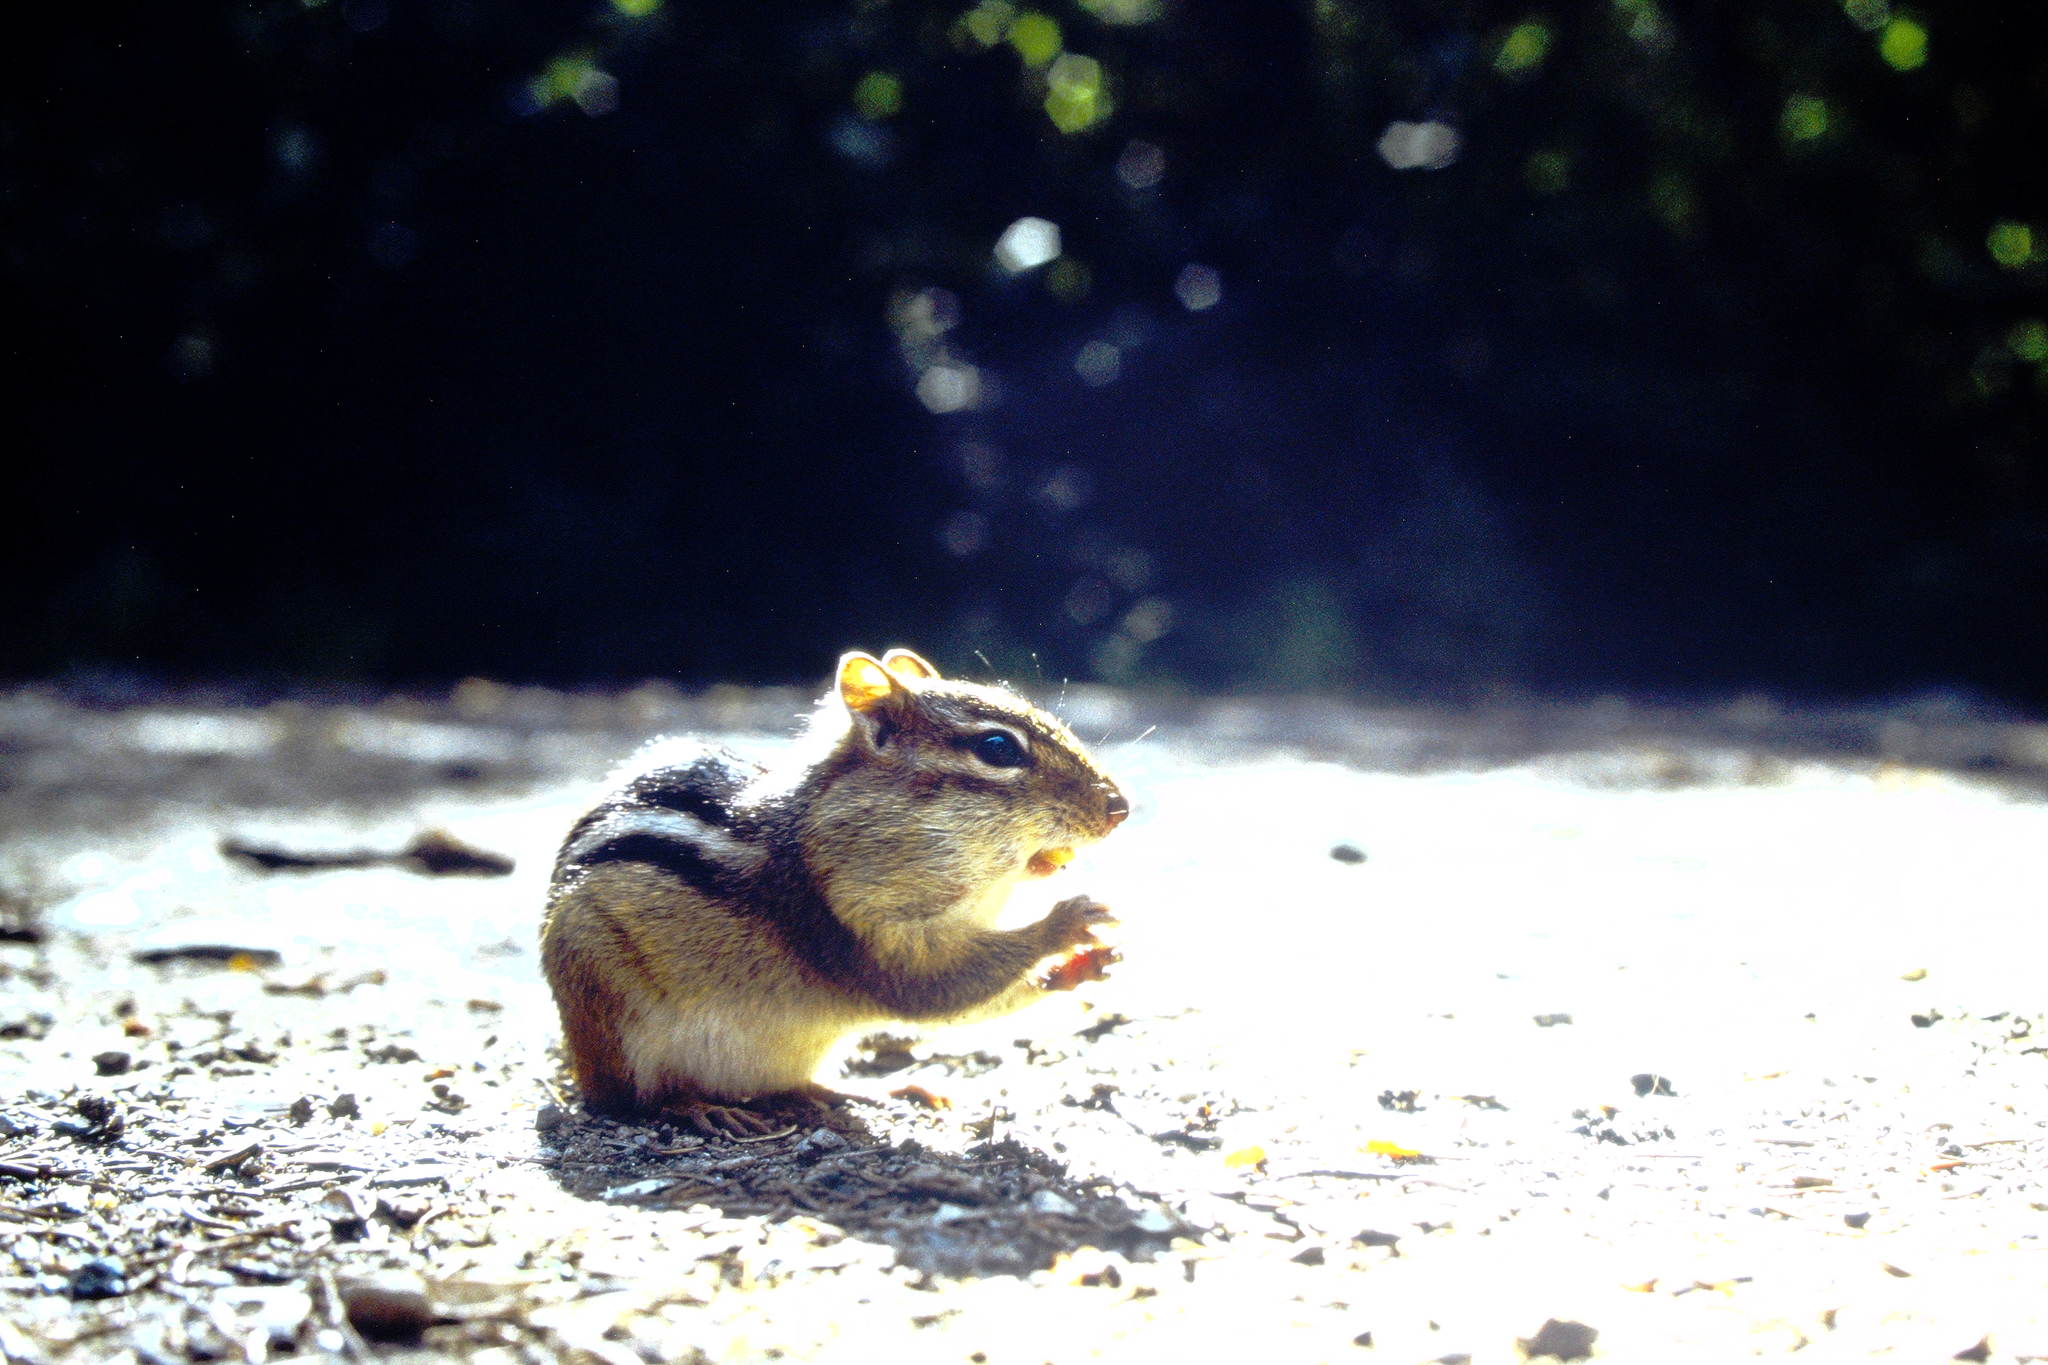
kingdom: Animalia
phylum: Chordata
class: Mammalia
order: Rodentia
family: Sciuridae
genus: Tamias
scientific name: Tamias striatus
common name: Eastern chipmunk
